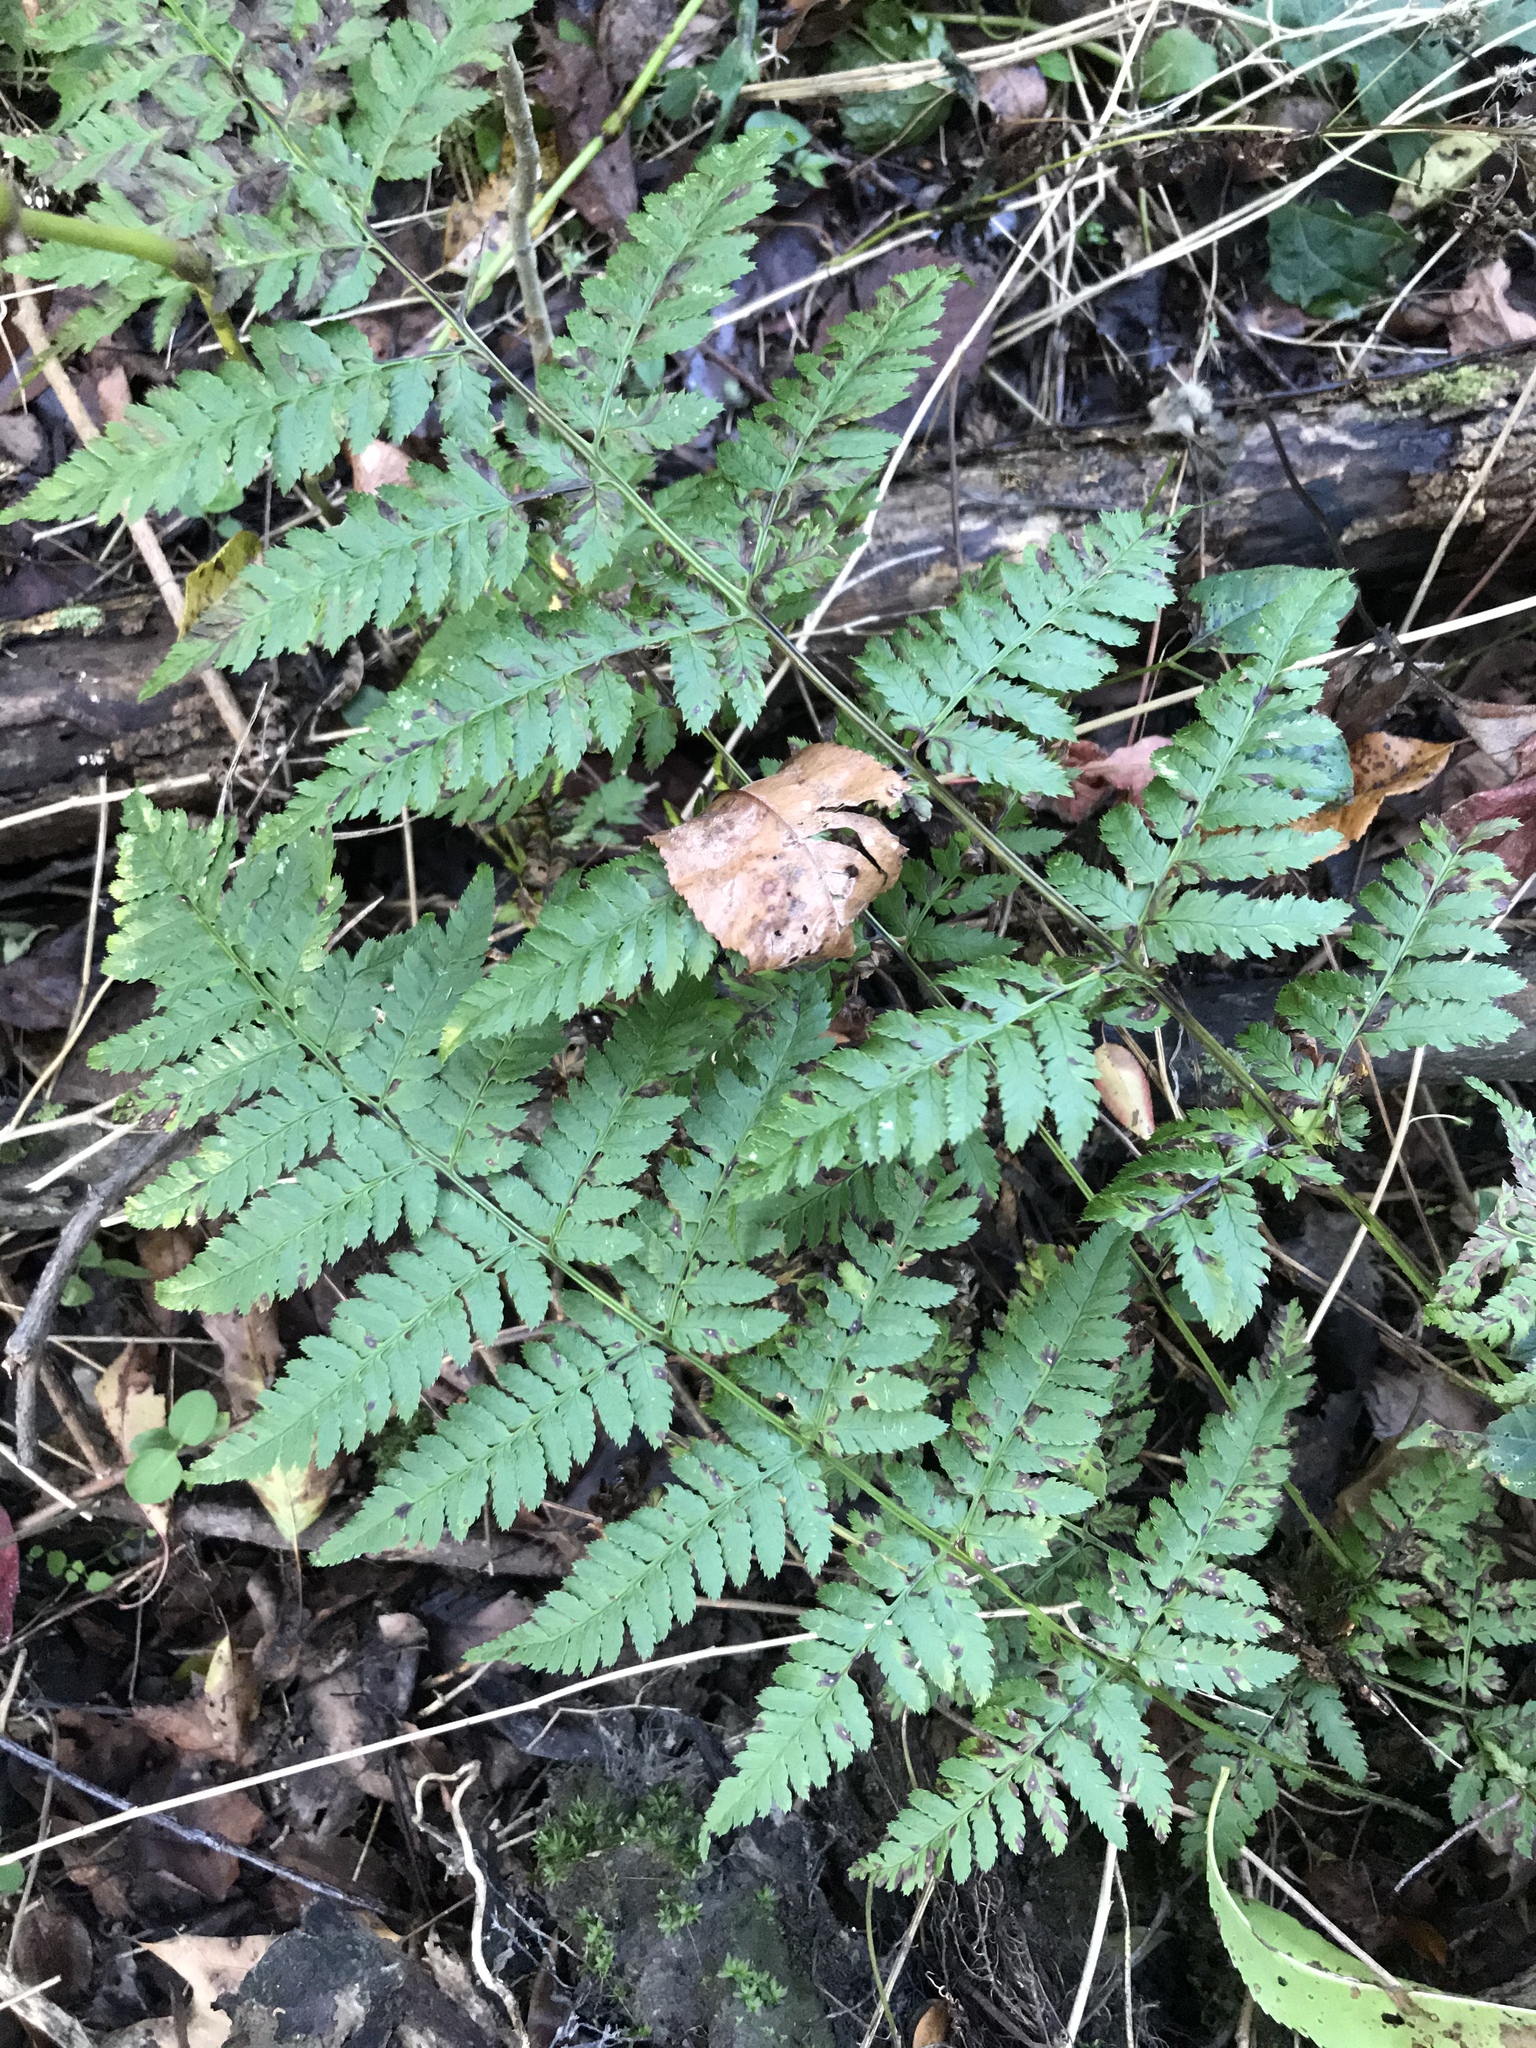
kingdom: Plantae
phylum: Tracheophyta
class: Polypodiopsida
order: Polypodiales
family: Dryopteridaceae
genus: Dryopteris
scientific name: Dryopteris carthusiana
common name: Narrow buckler-fern
